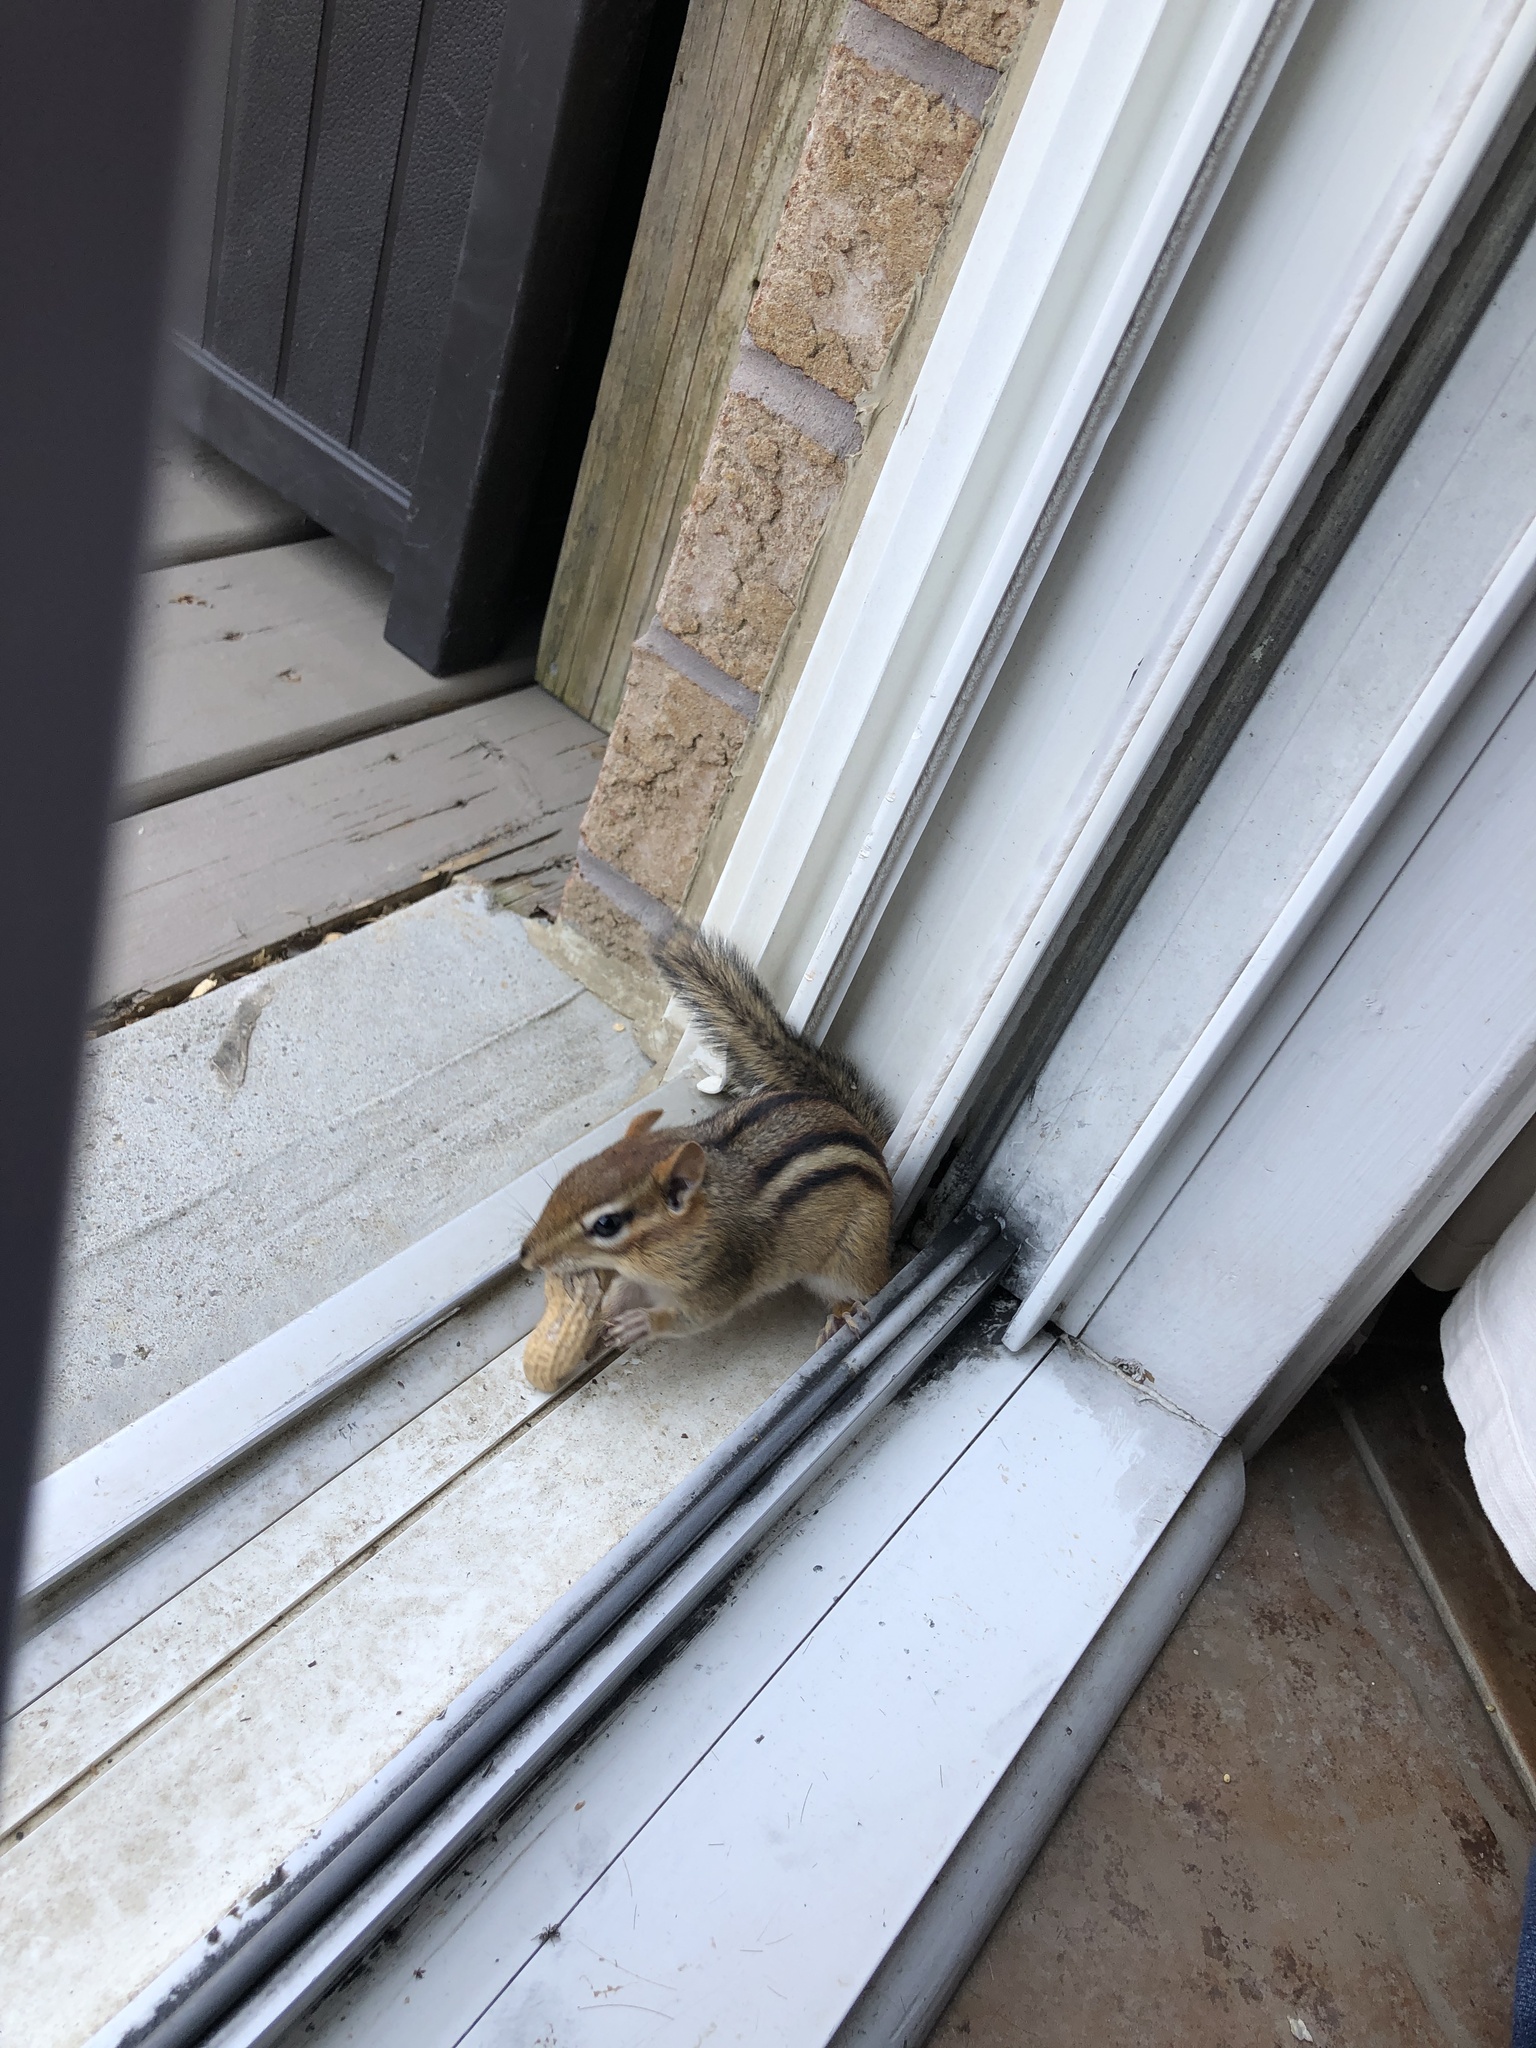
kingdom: Animalia
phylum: Chordata
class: Mammalia
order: Rodentia
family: Sciuridae
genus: Tamias
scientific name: Tamias striatus
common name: Eastern chipmunk
